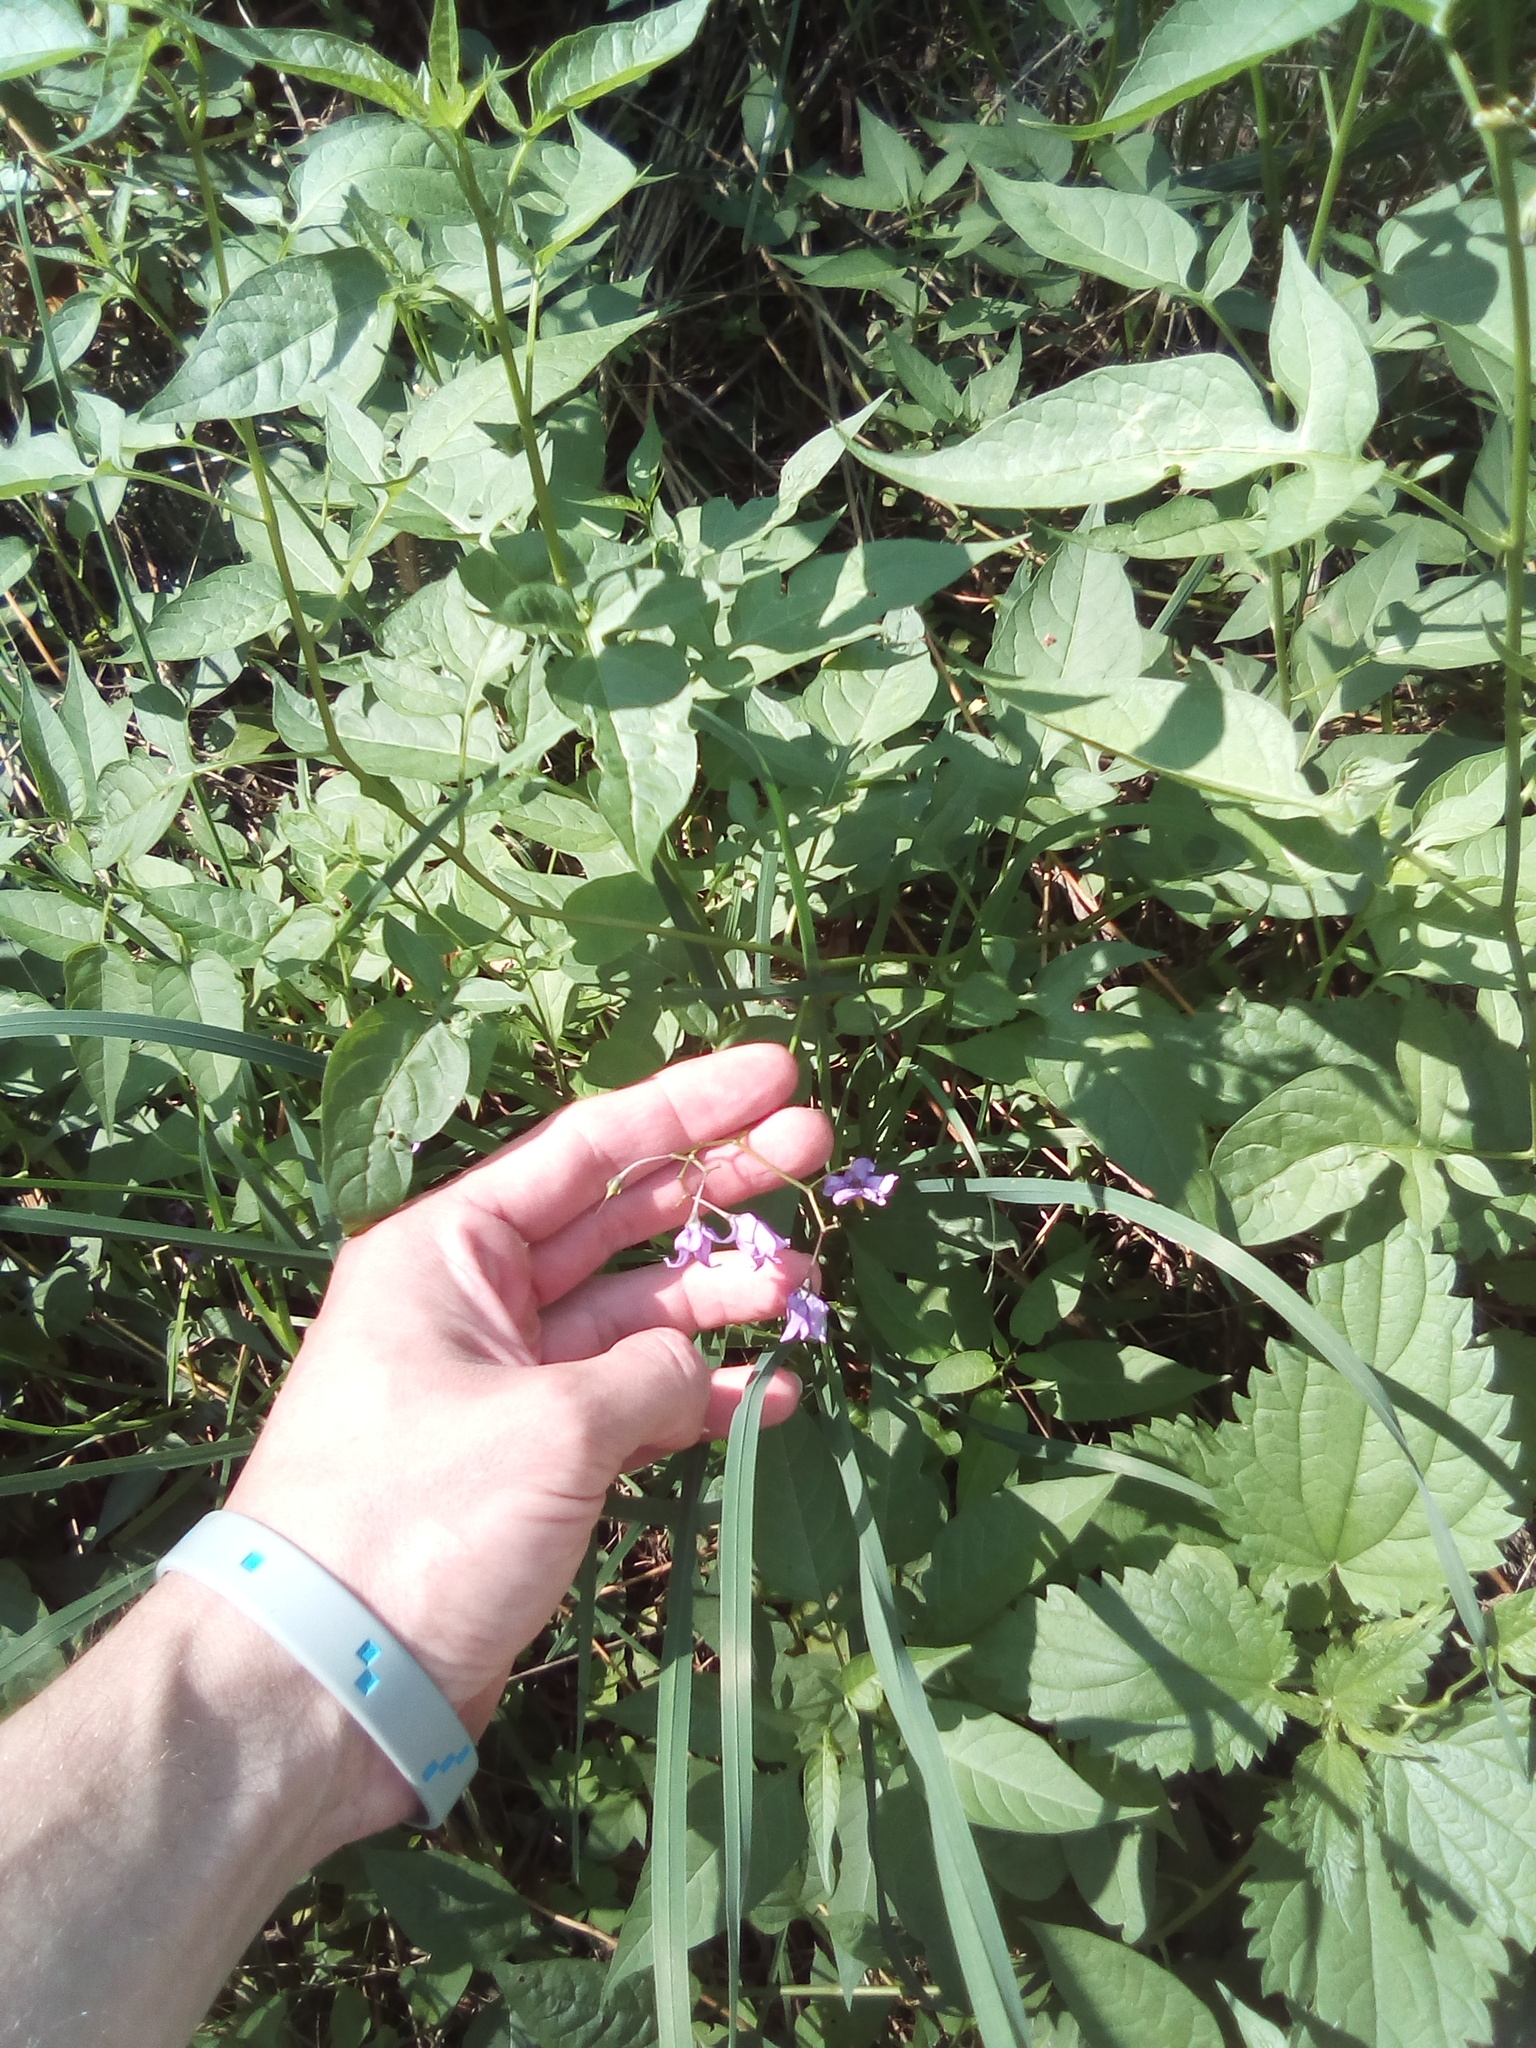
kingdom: Plantae
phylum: Tracheophyta
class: Magnoliopsida
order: Solanales
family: Solanaceae
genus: Solanum
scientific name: Solanum dulcamara
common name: Climbing nightshade
